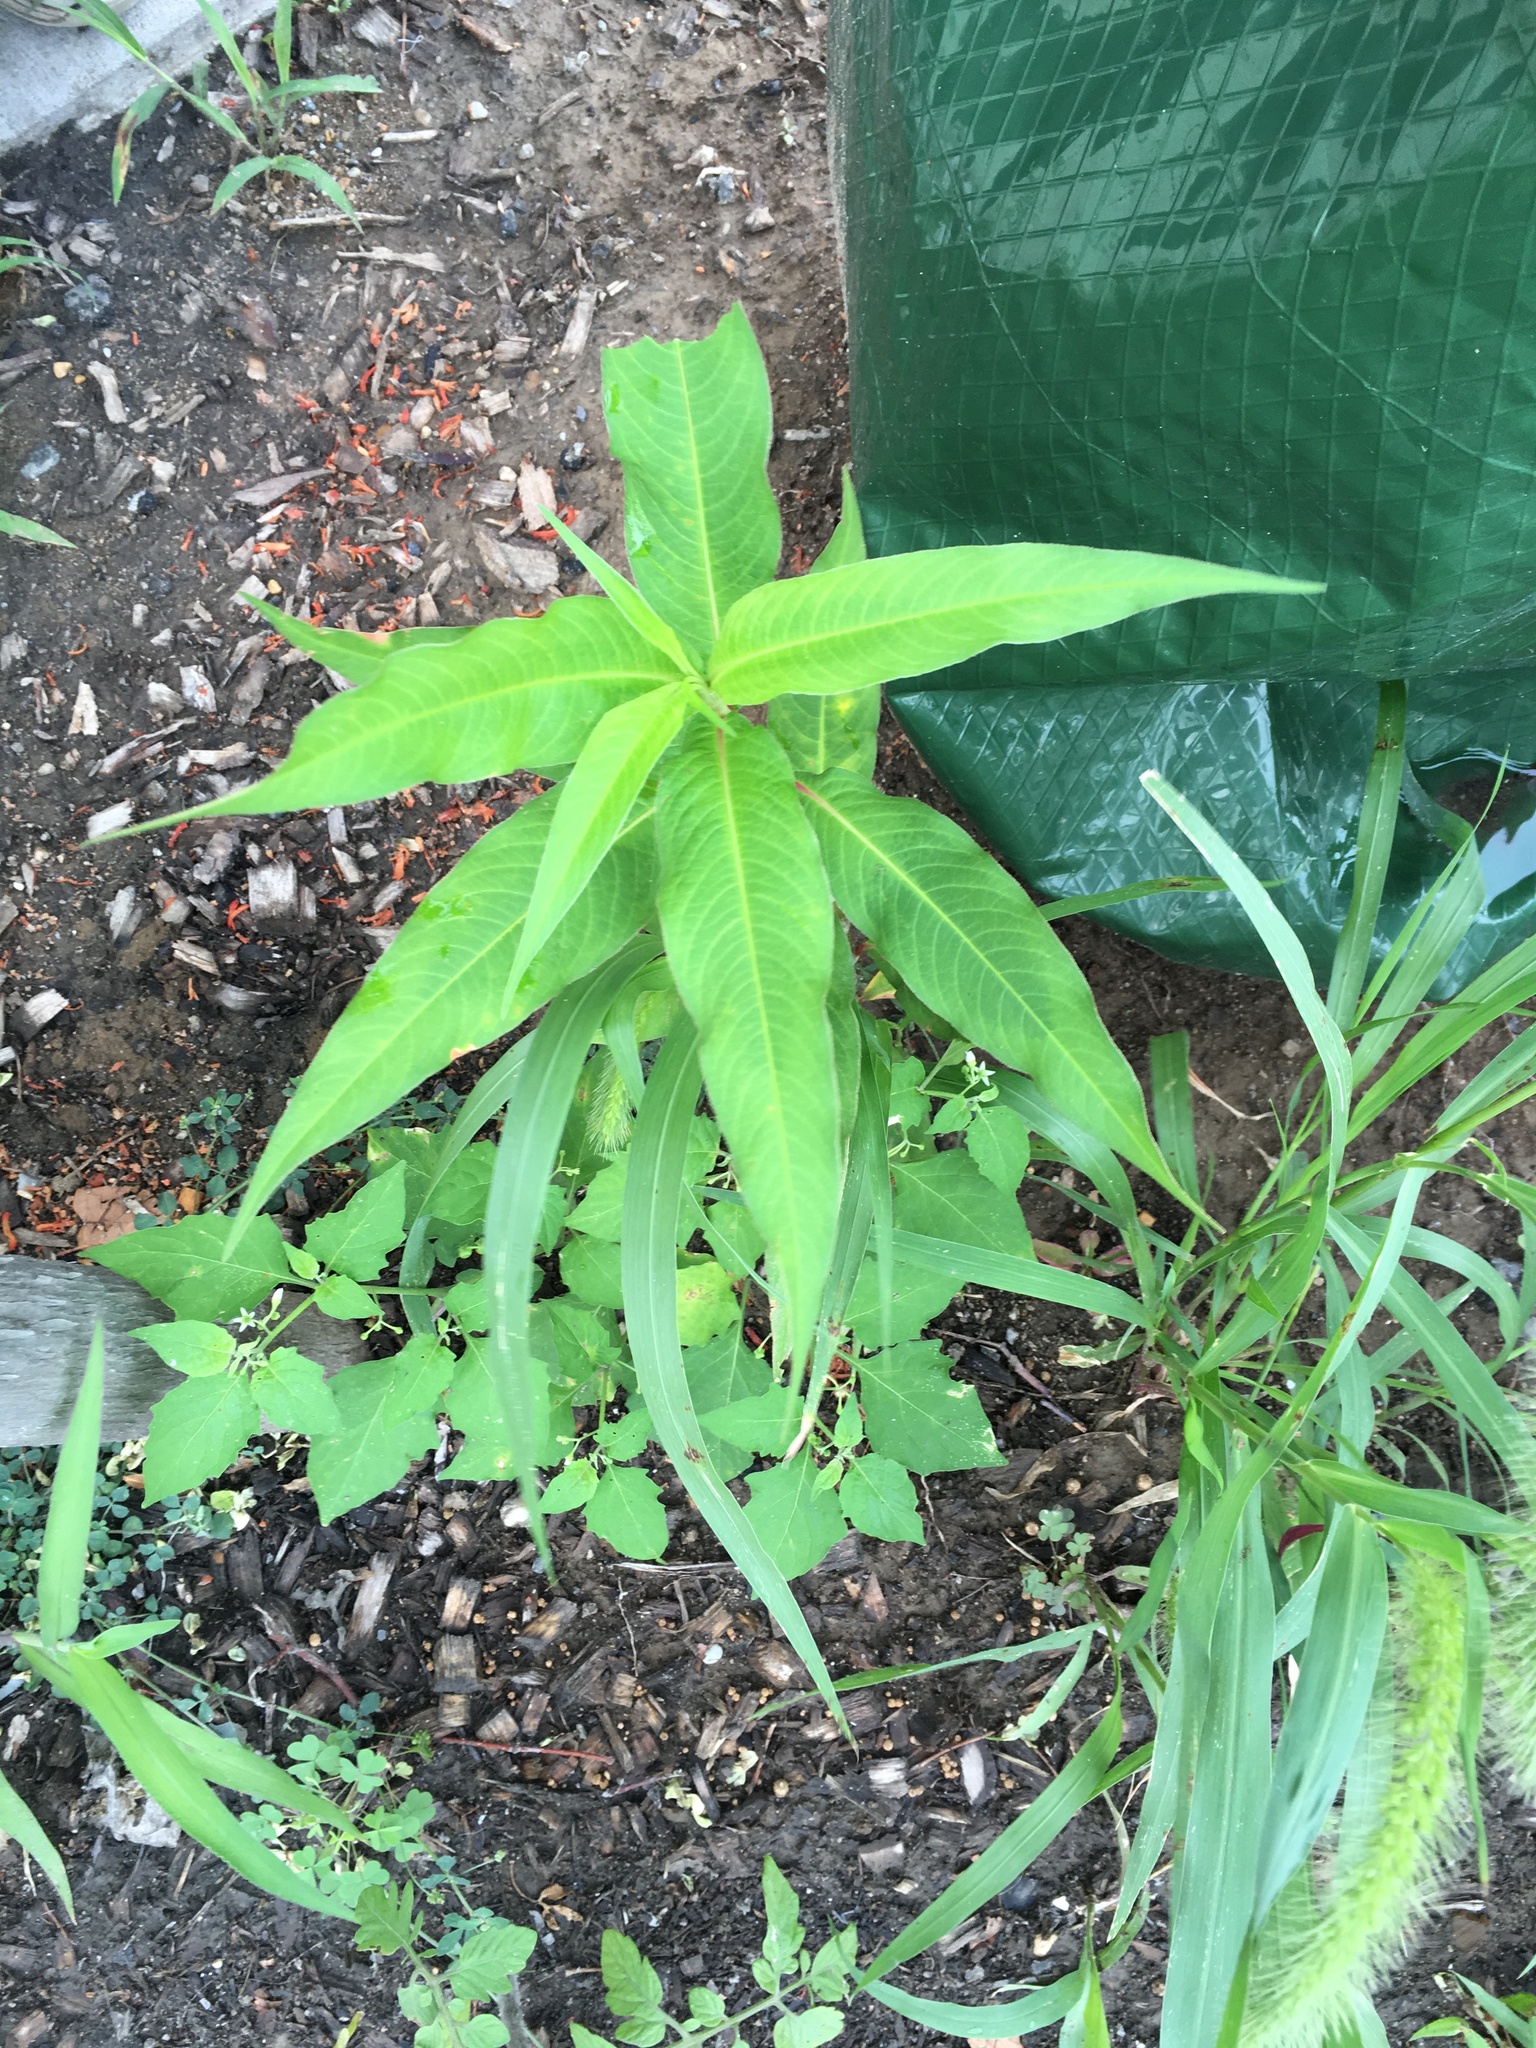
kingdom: Plantae
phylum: Tracheophyta
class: Magnoliopsida
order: Caryophyllales
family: Polygonaceae
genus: Persicaria
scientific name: Persicaria extremiorientalis
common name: Far-eastern smartweed
